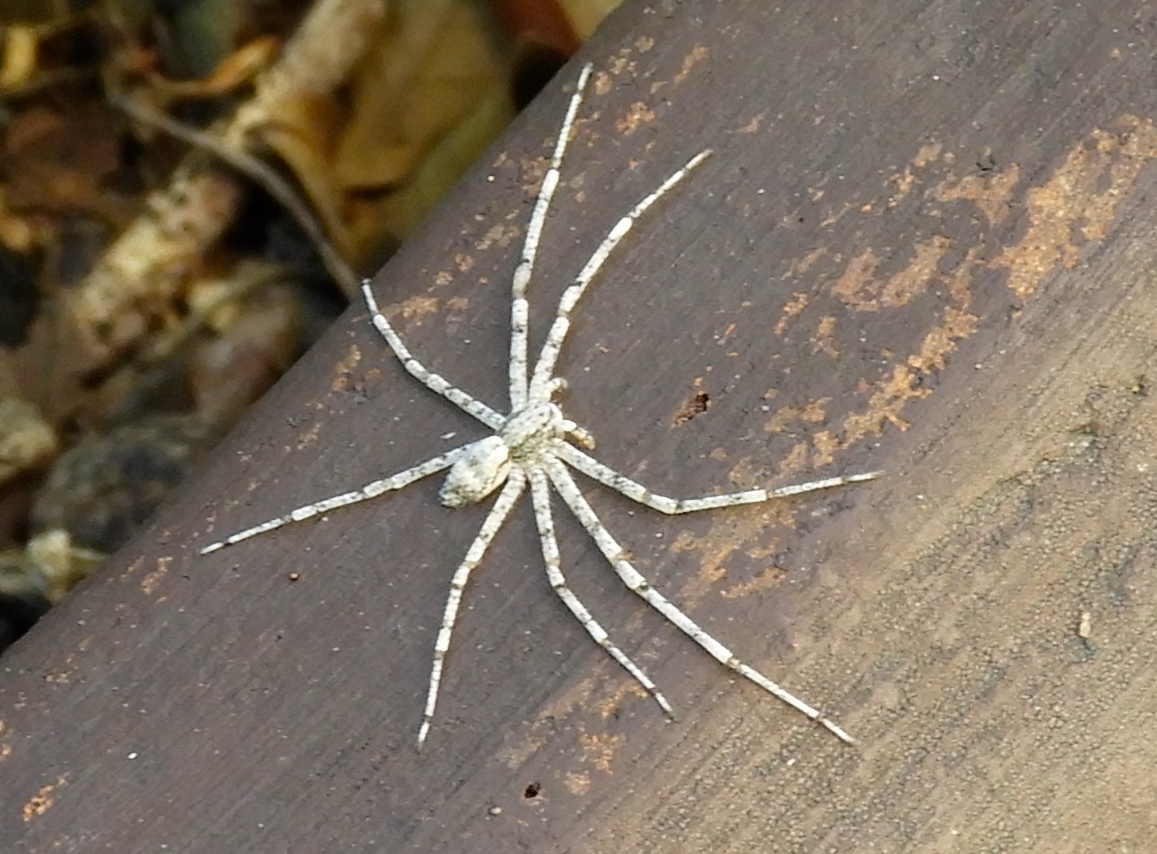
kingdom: Animalia
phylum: Arthropoda
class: Arachnida
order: Araneae
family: Philodromidae
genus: Philodromus
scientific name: Philodromus
